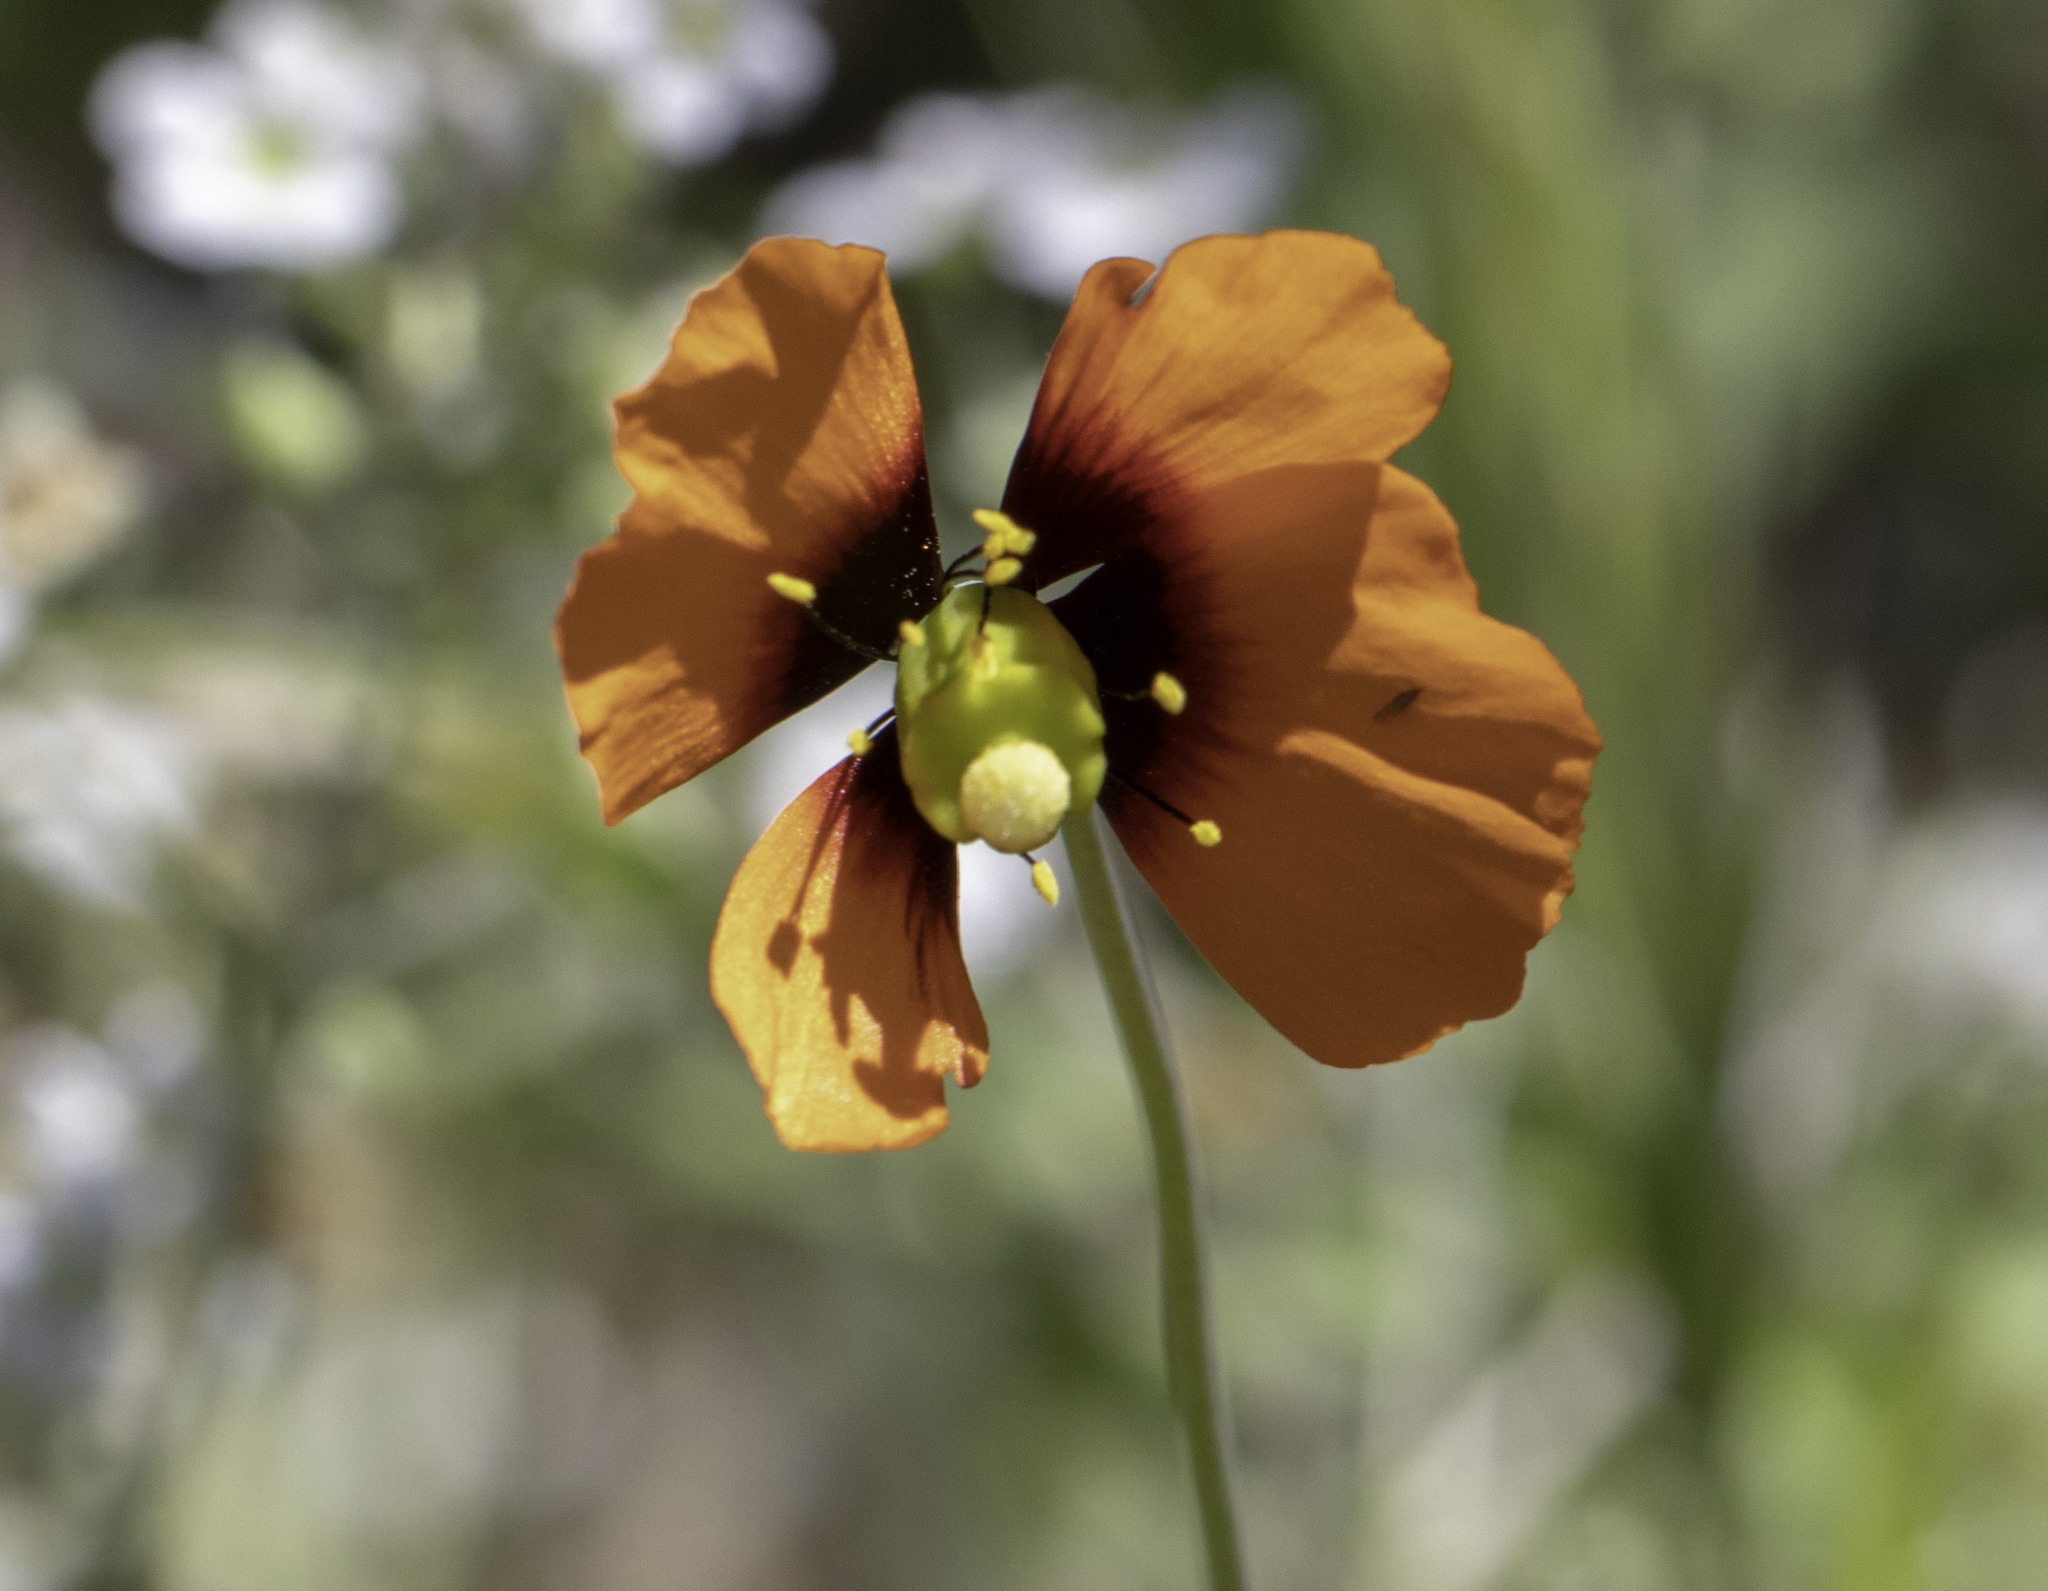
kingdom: Plantae
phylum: Tracheophyta
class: Magnoliopsida
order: Ranunculales
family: Papaveraceae
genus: Stylomecon
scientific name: Stylomecon heterophylla
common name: Flaming-poppy
